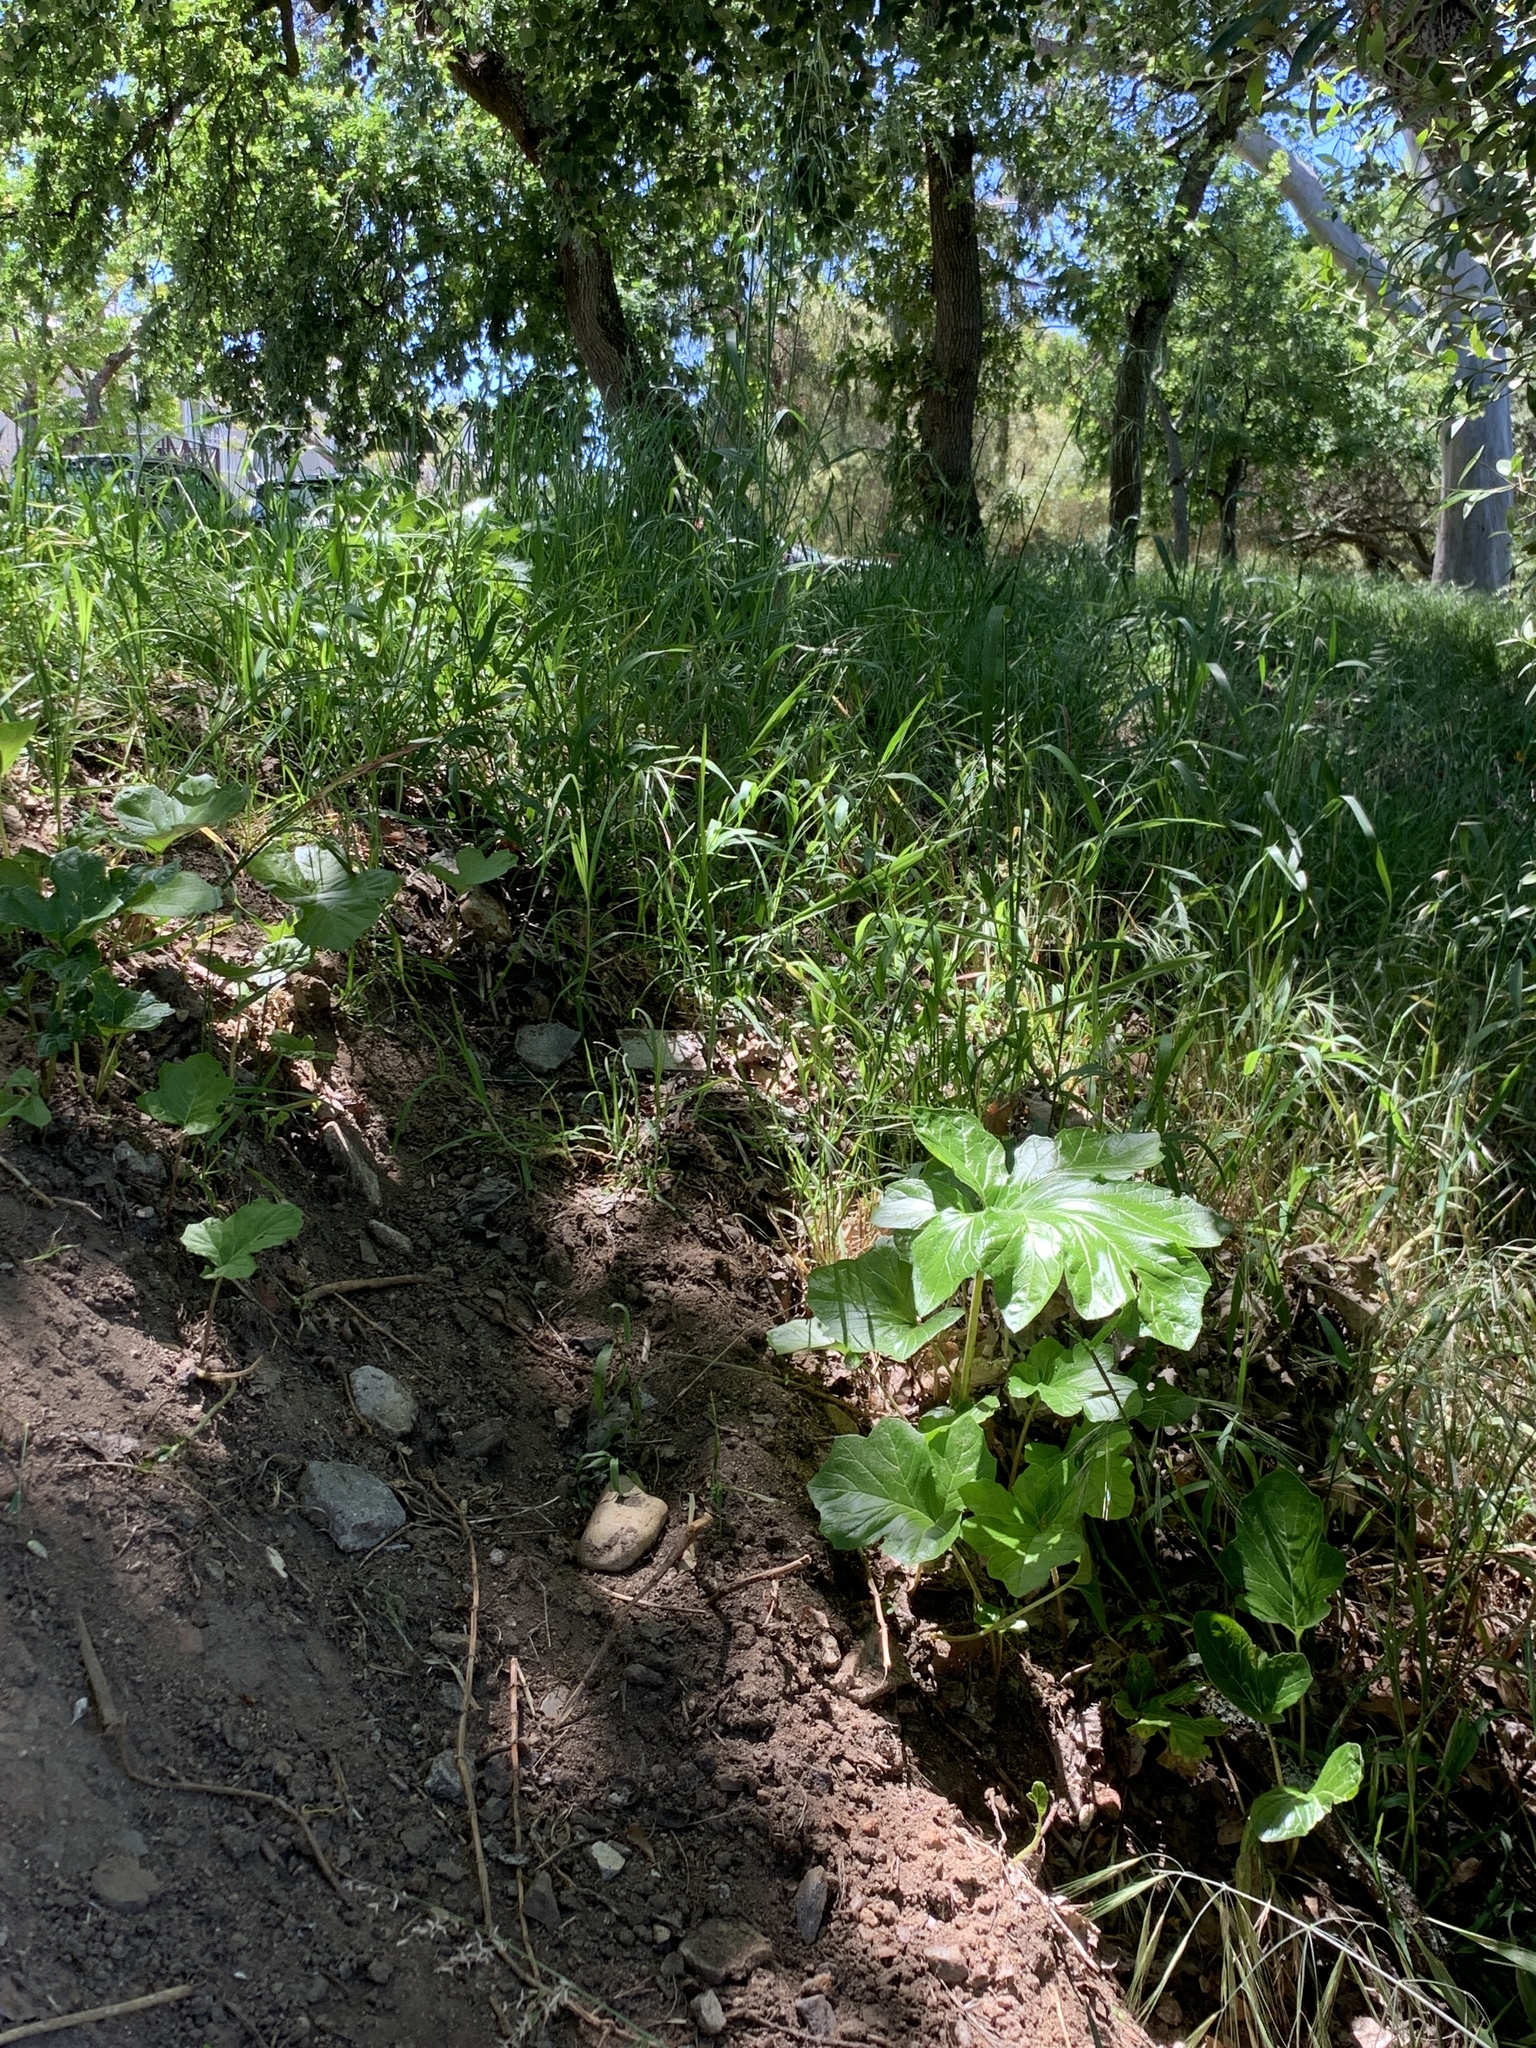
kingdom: Plantae
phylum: Tracheophyta
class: Magnoliopsida
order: Lamiales
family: Acanthaceae
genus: Acanthus
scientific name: Acanthus mollis
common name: Bear's-breech
